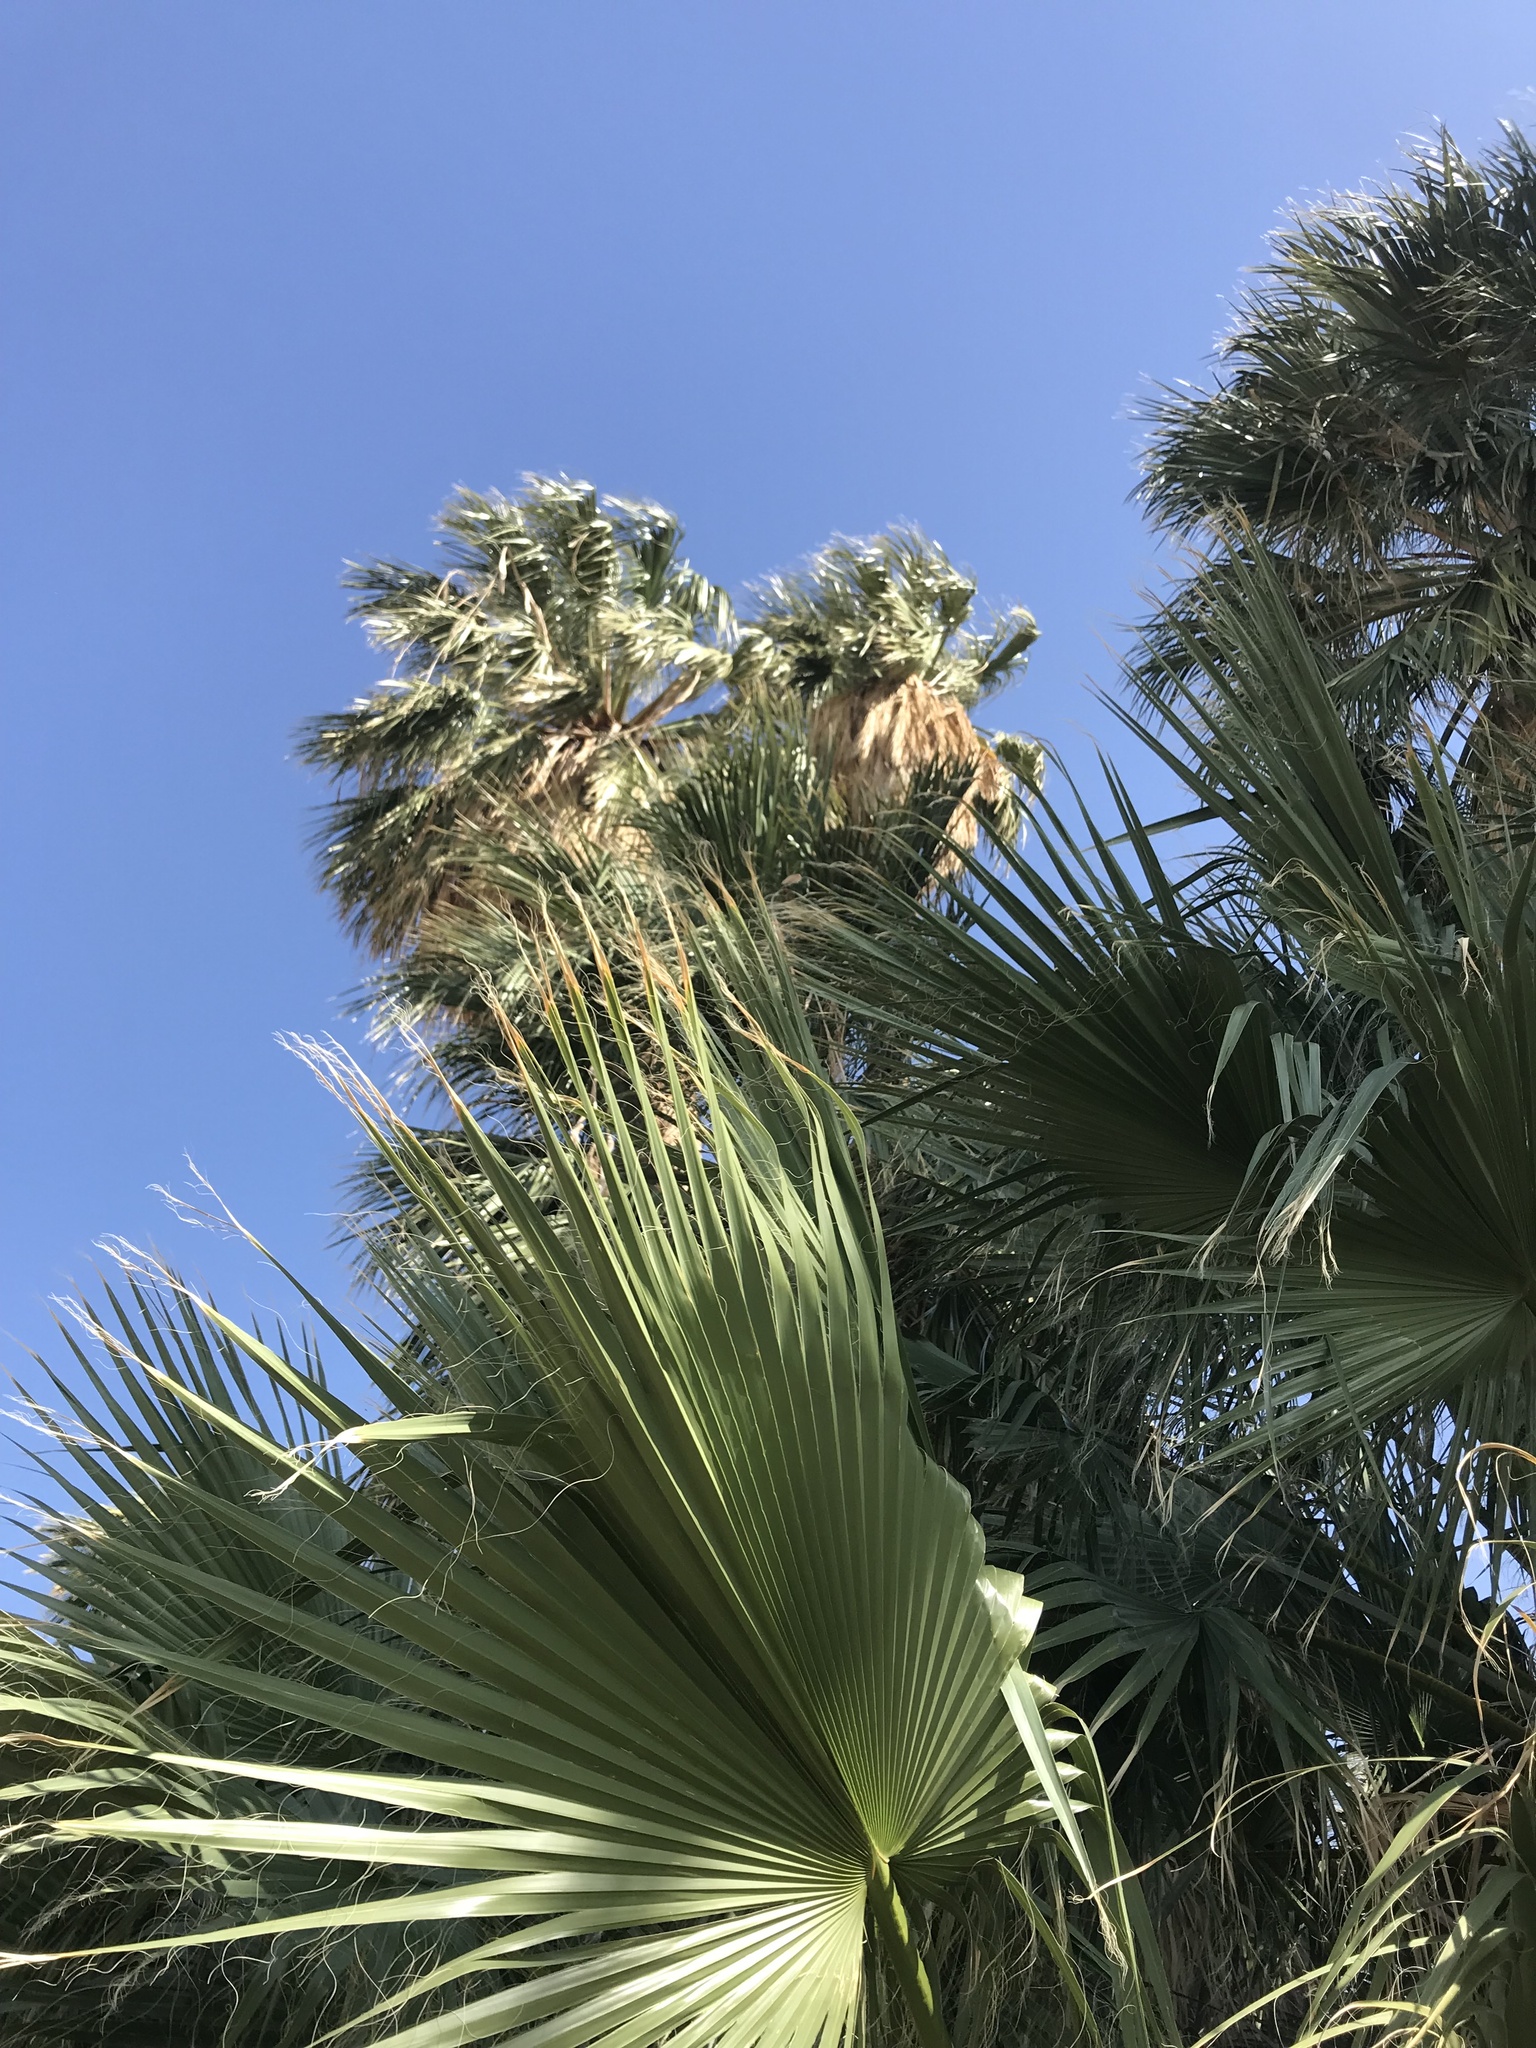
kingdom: Plantae
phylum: Tracheophyta
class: Liliopsida
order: Arecales
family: Arecaceae
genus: Washingtonia
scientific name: Washingtonia filifera
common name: California fan palm
